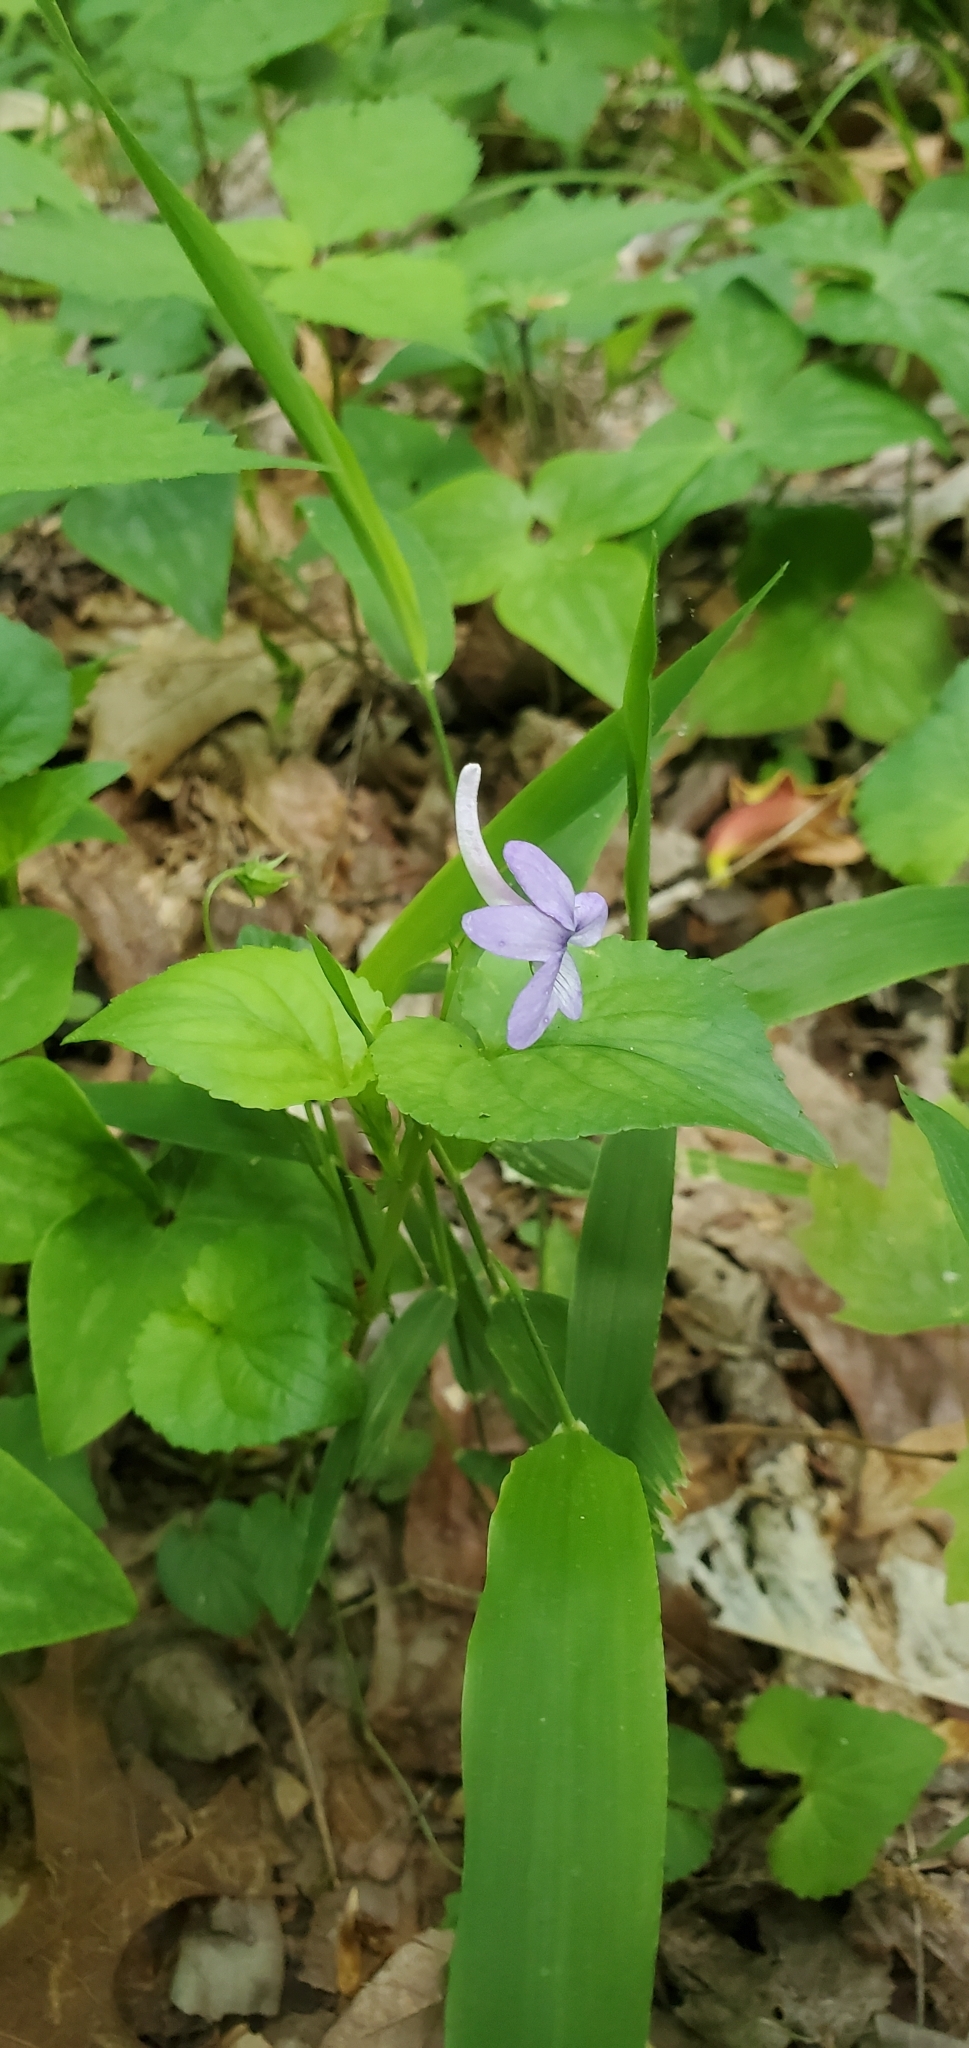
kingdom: Plantae
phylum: Tracheophyta
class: Magnoliopsida
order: Malpighiales
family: Violaceae
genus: Viola
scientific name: Viola rostrata
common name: Long-spur violet
